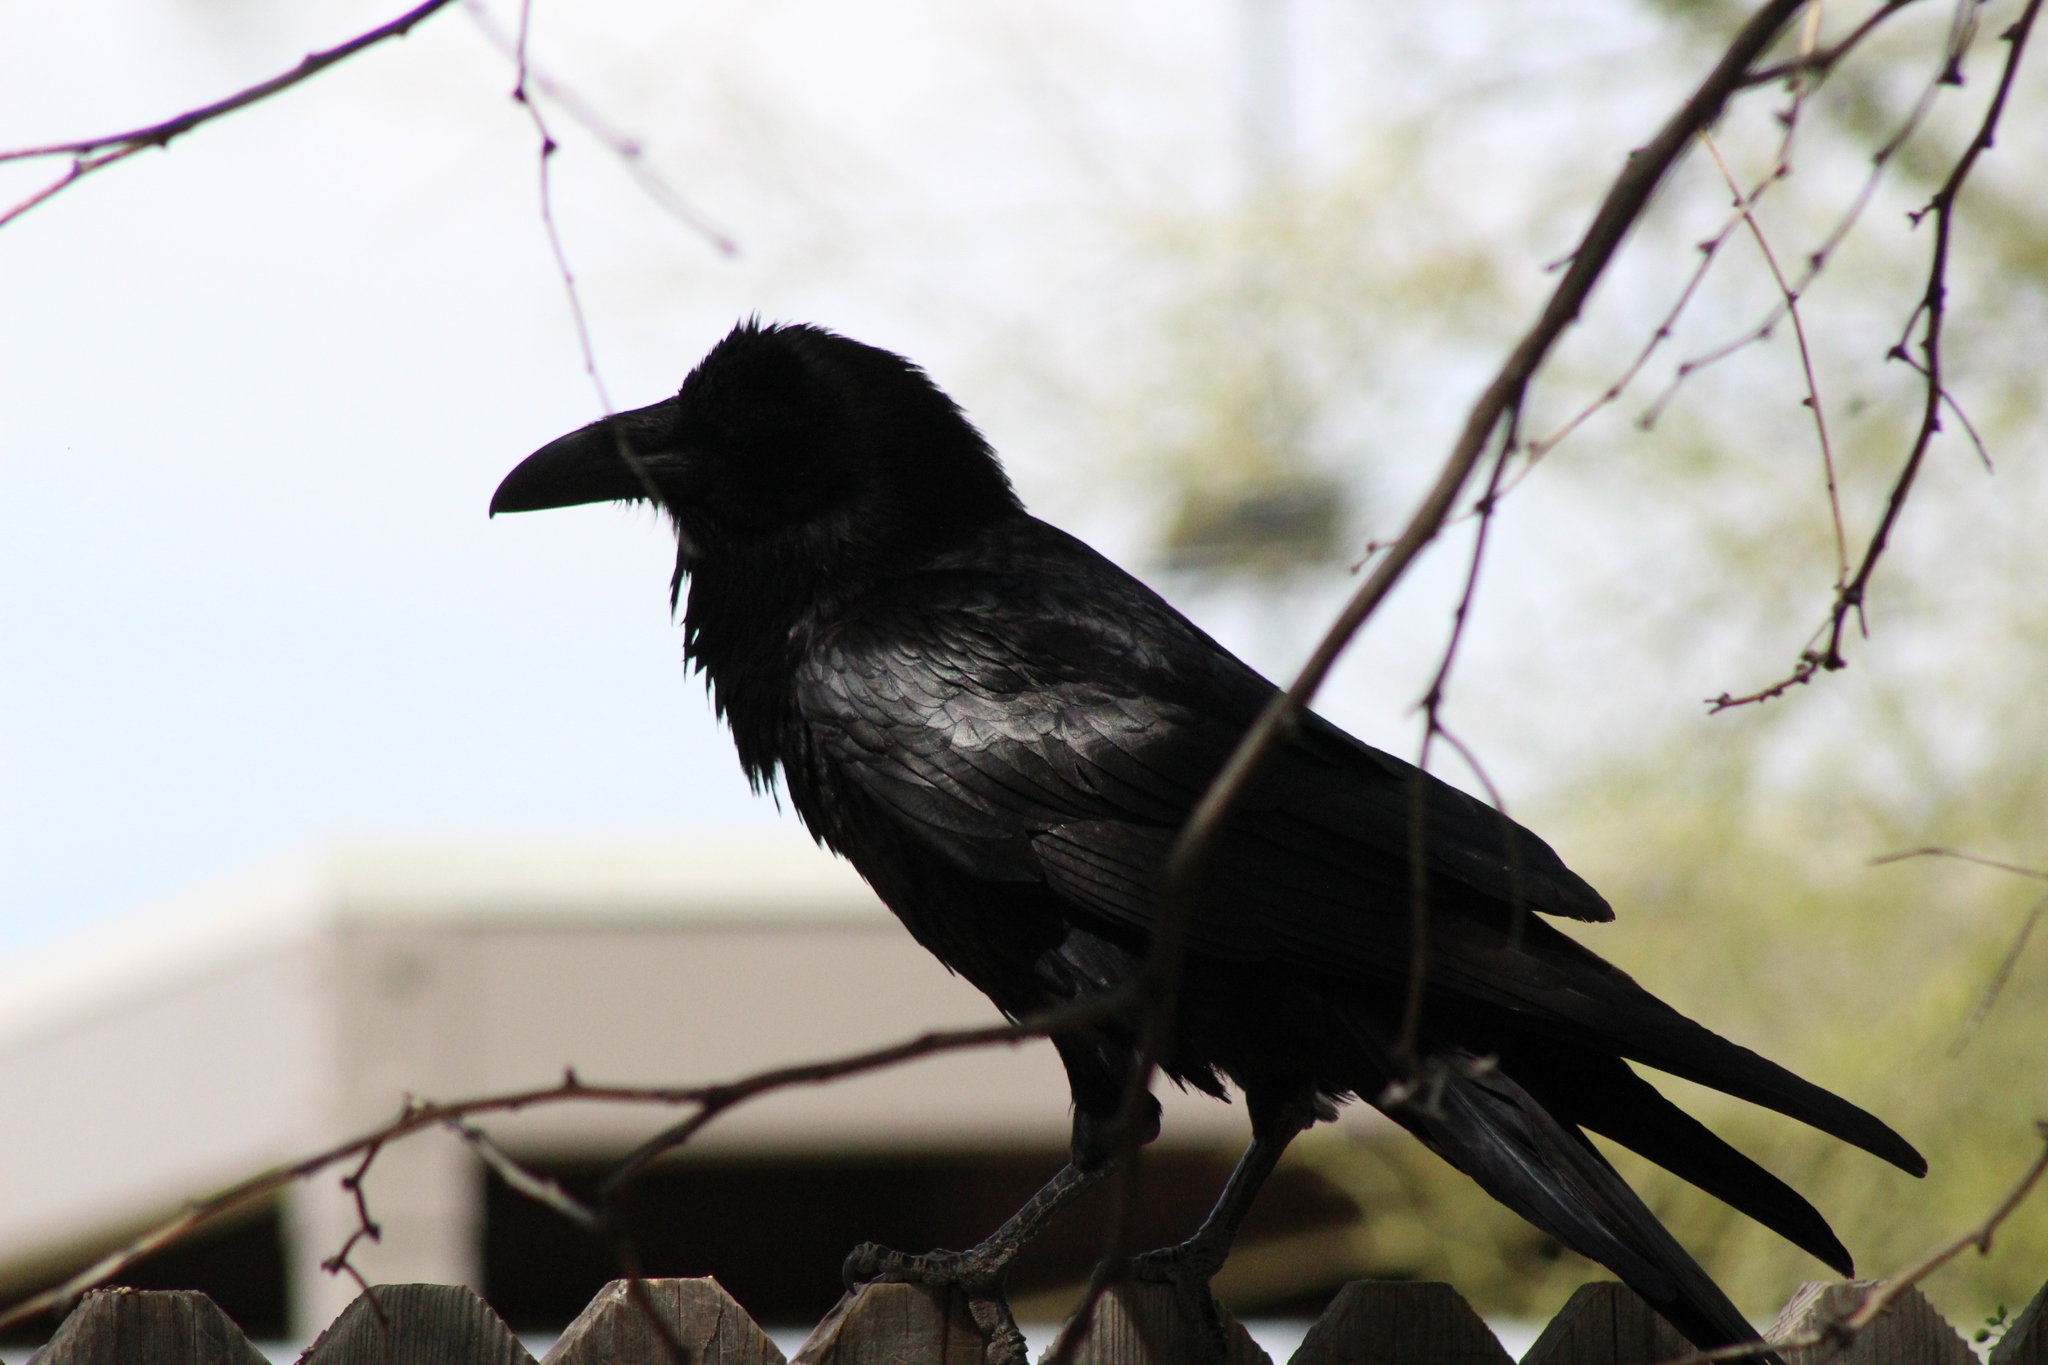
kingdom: Animalia
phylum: Chordata
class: Aves
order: Passeriformes
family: Corvidae
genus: Corvus
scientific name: Corvus corax
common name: Common raven
